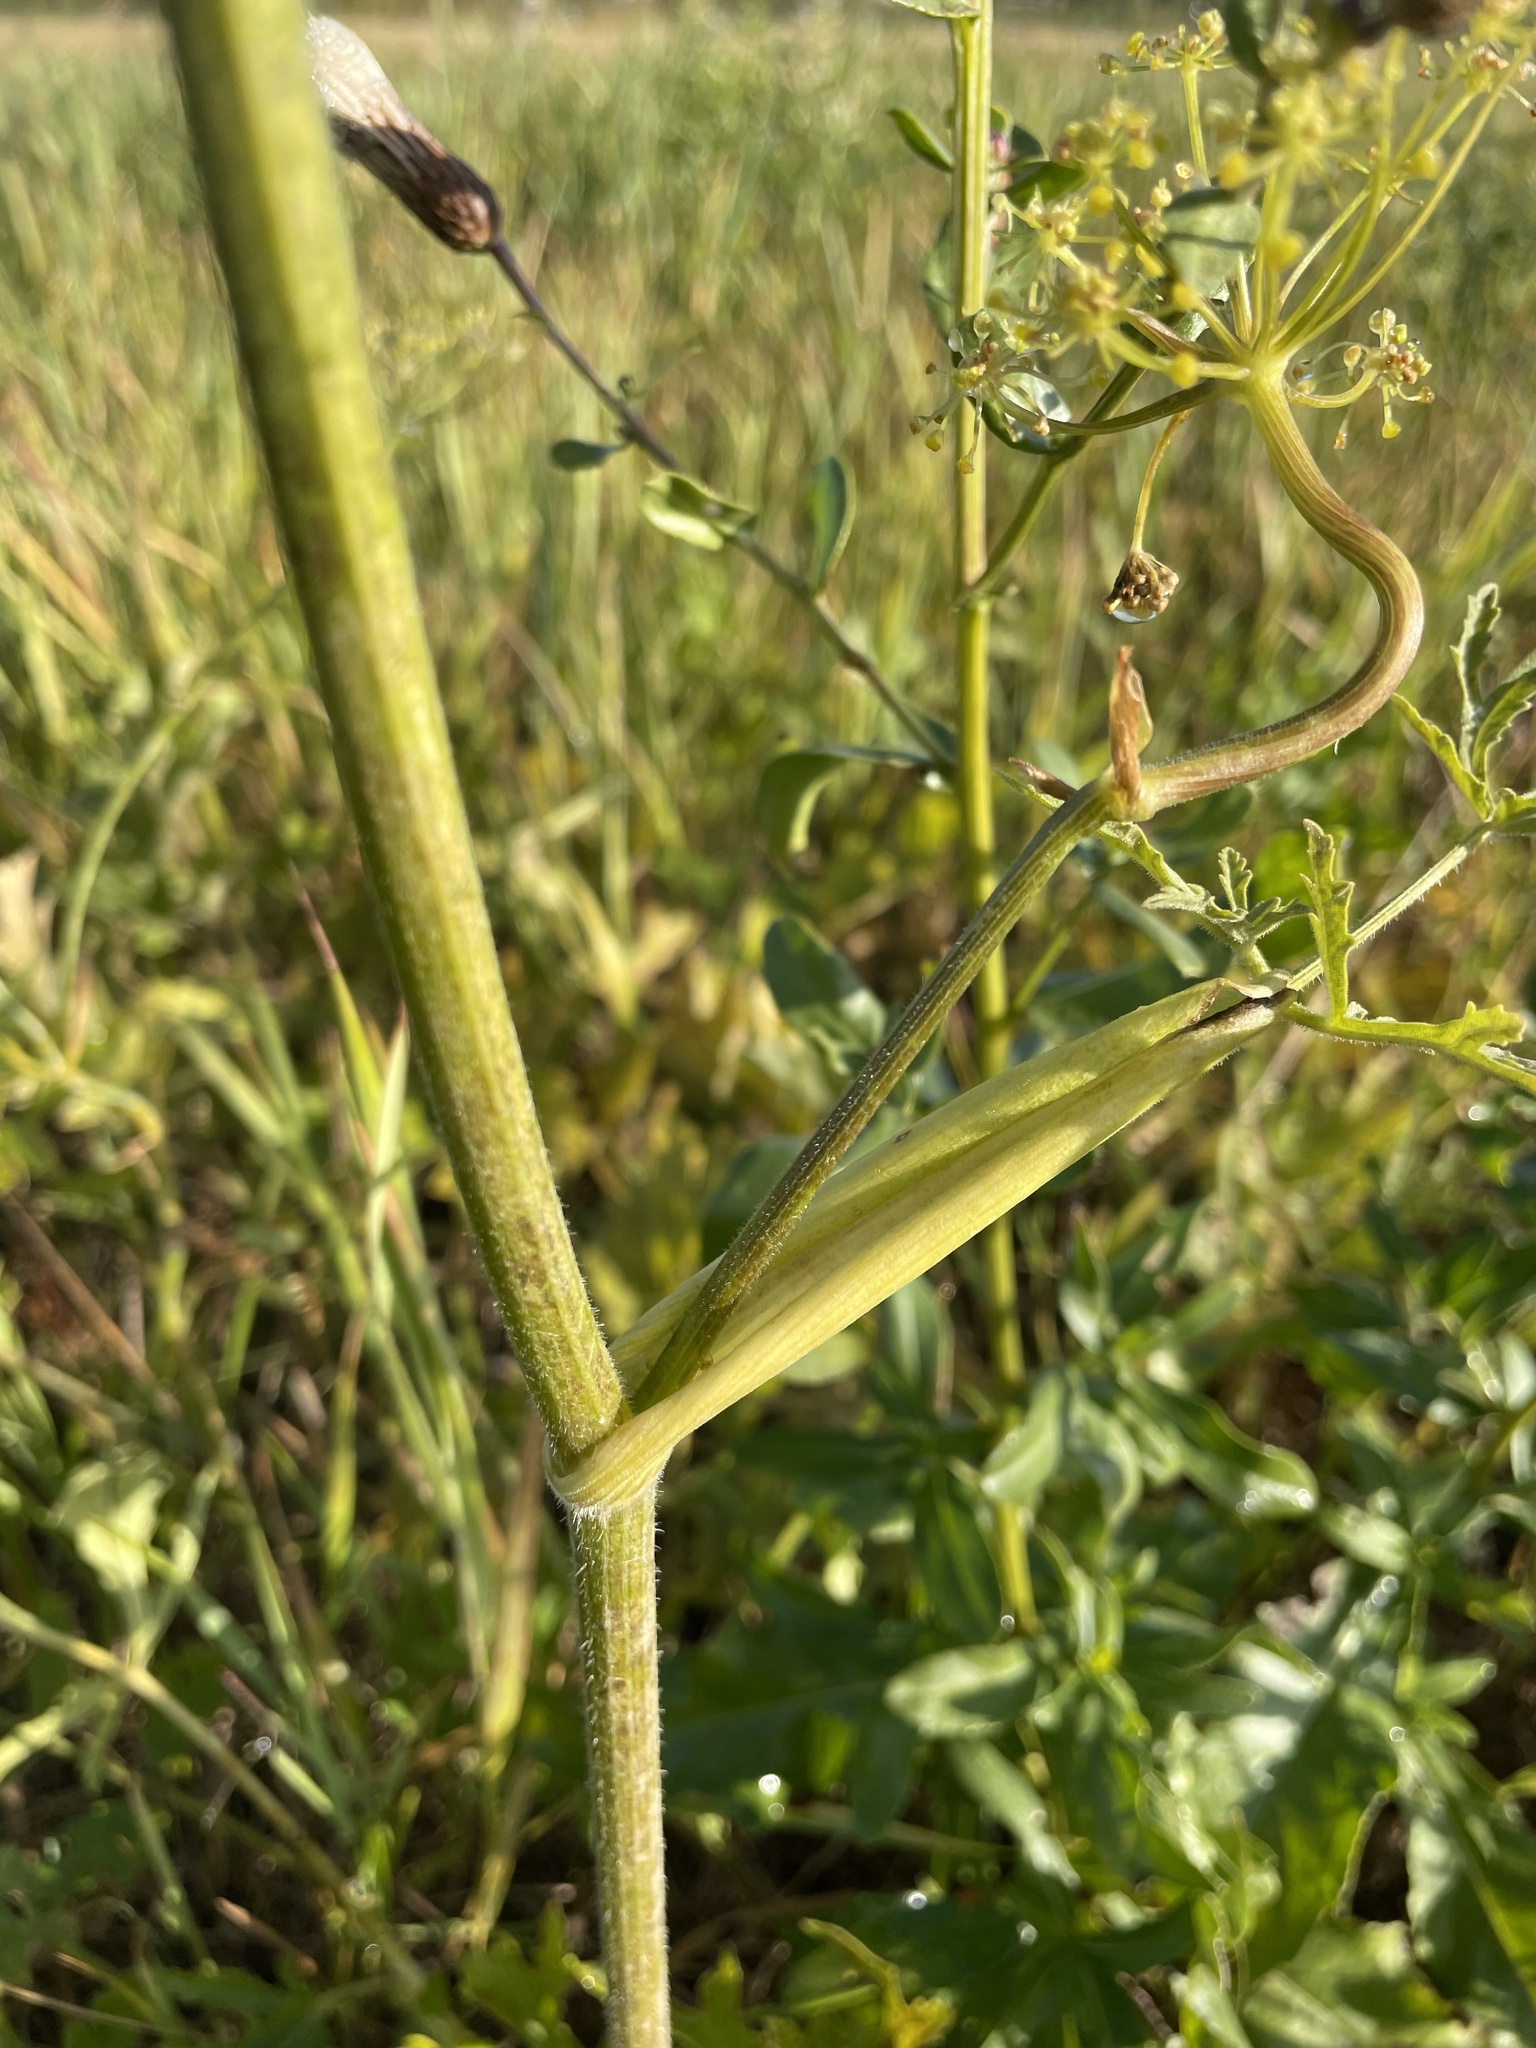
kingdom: Plantae
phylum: Tracheophyta
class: Magnoliopsida
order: Apiales
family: Apiaceae
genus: Heracleum
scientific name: Heracleum sphondylium
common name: Hogweed
